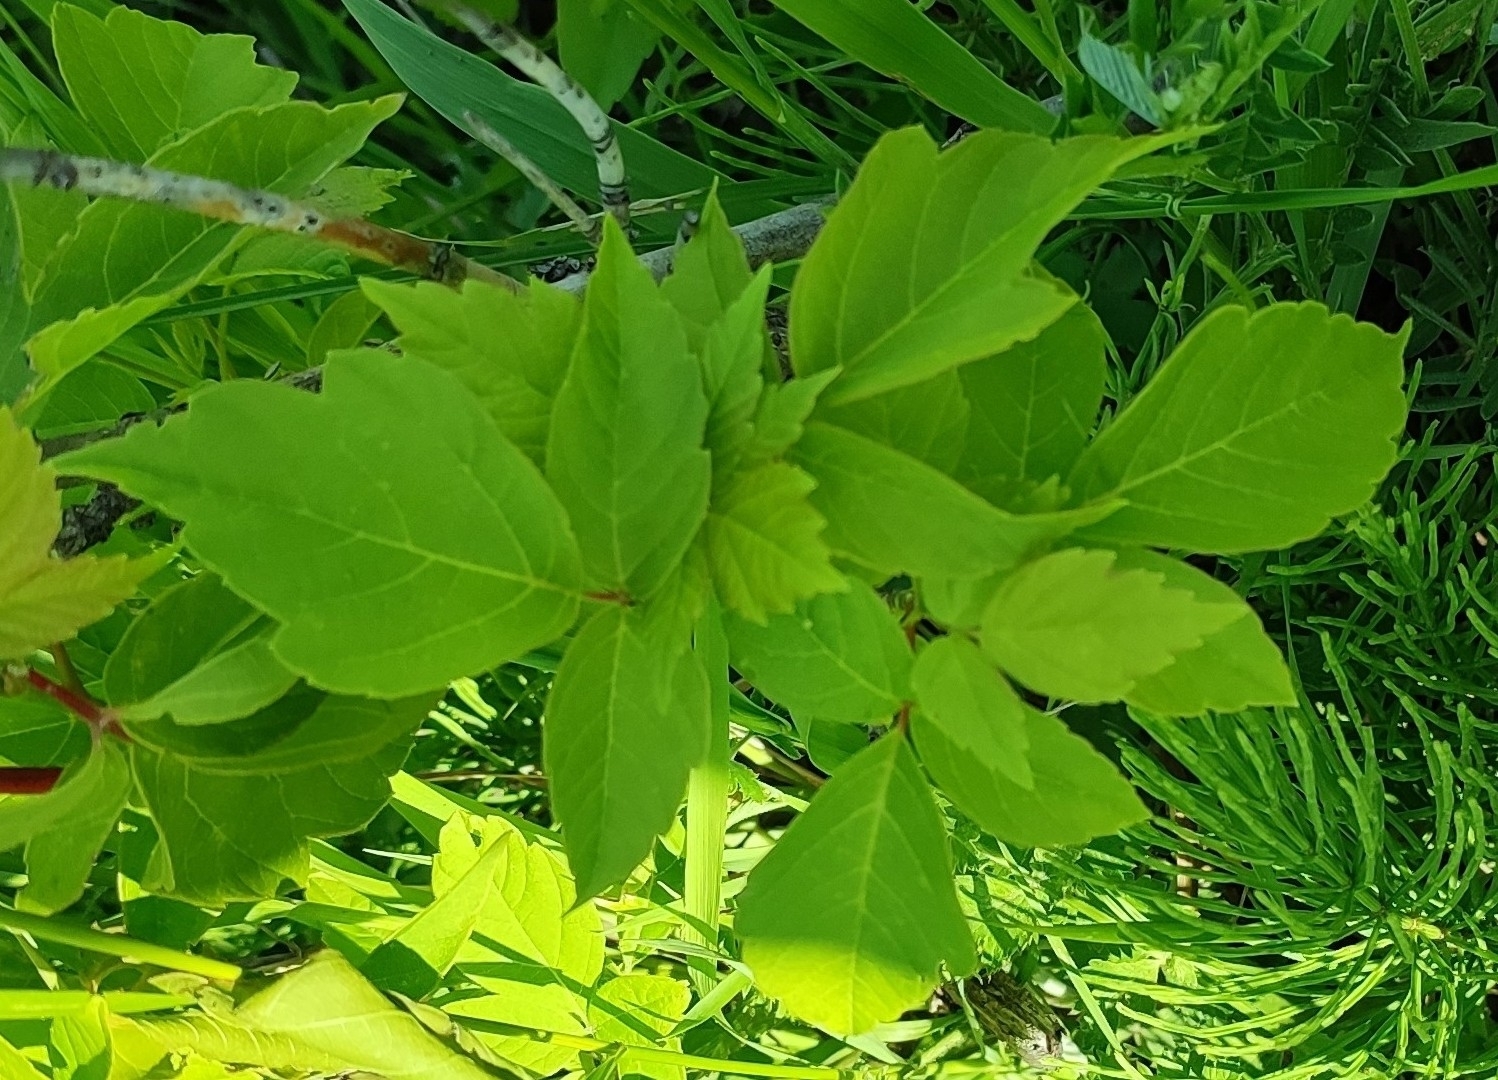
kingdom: Plantae
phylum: Tracheophyta
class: Magnoliopsida
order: Sapindales
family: Sapindaceae
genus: Acer
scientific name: Acer negundo
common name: Ashleaf maple
